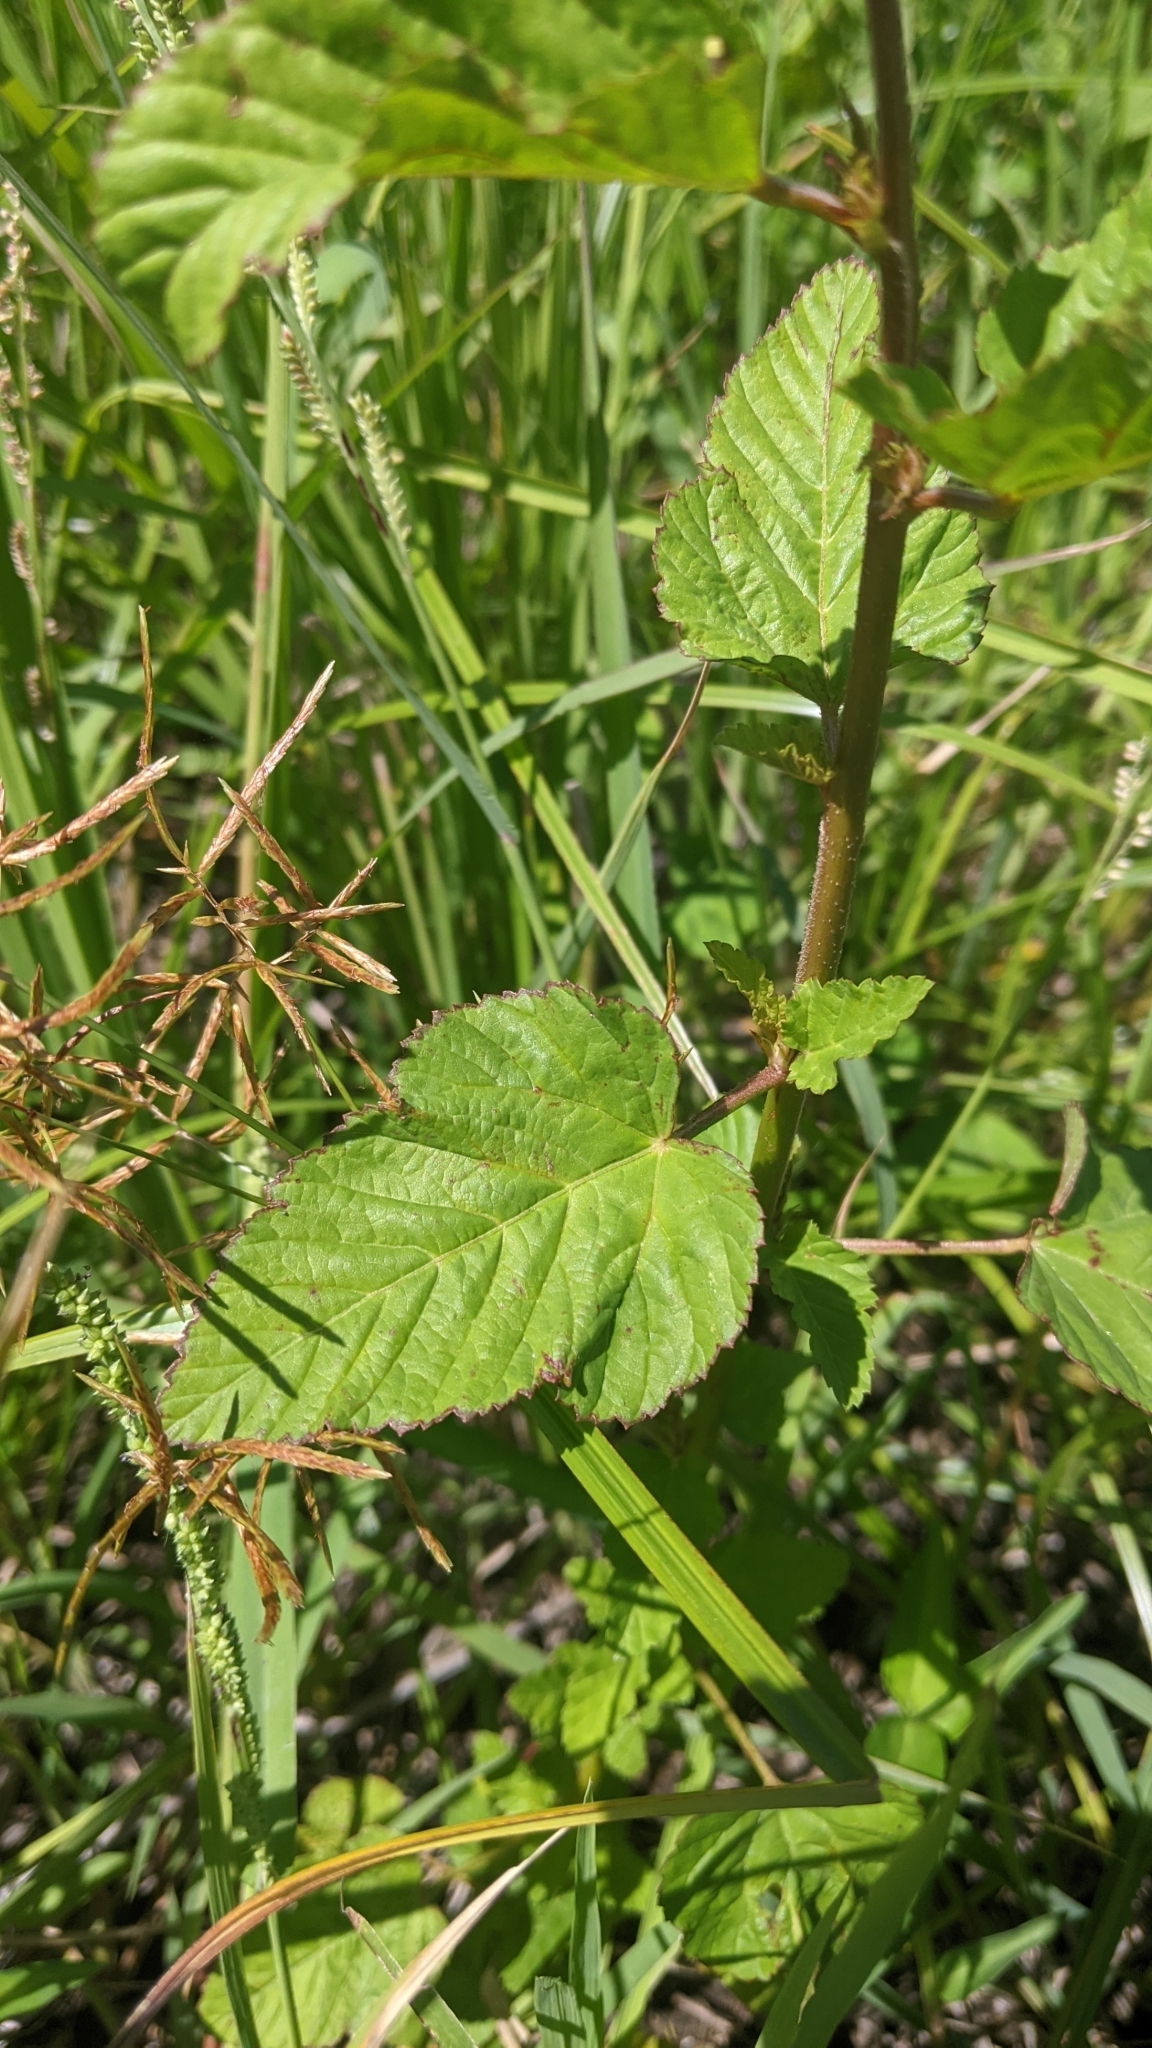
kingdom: Plantae
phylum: Tracheophyta
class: Magnoliopsida
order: Malvales
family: Malvaceae
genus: Melochia
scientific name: Melochia corchorifolia
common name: Chocolateweed
